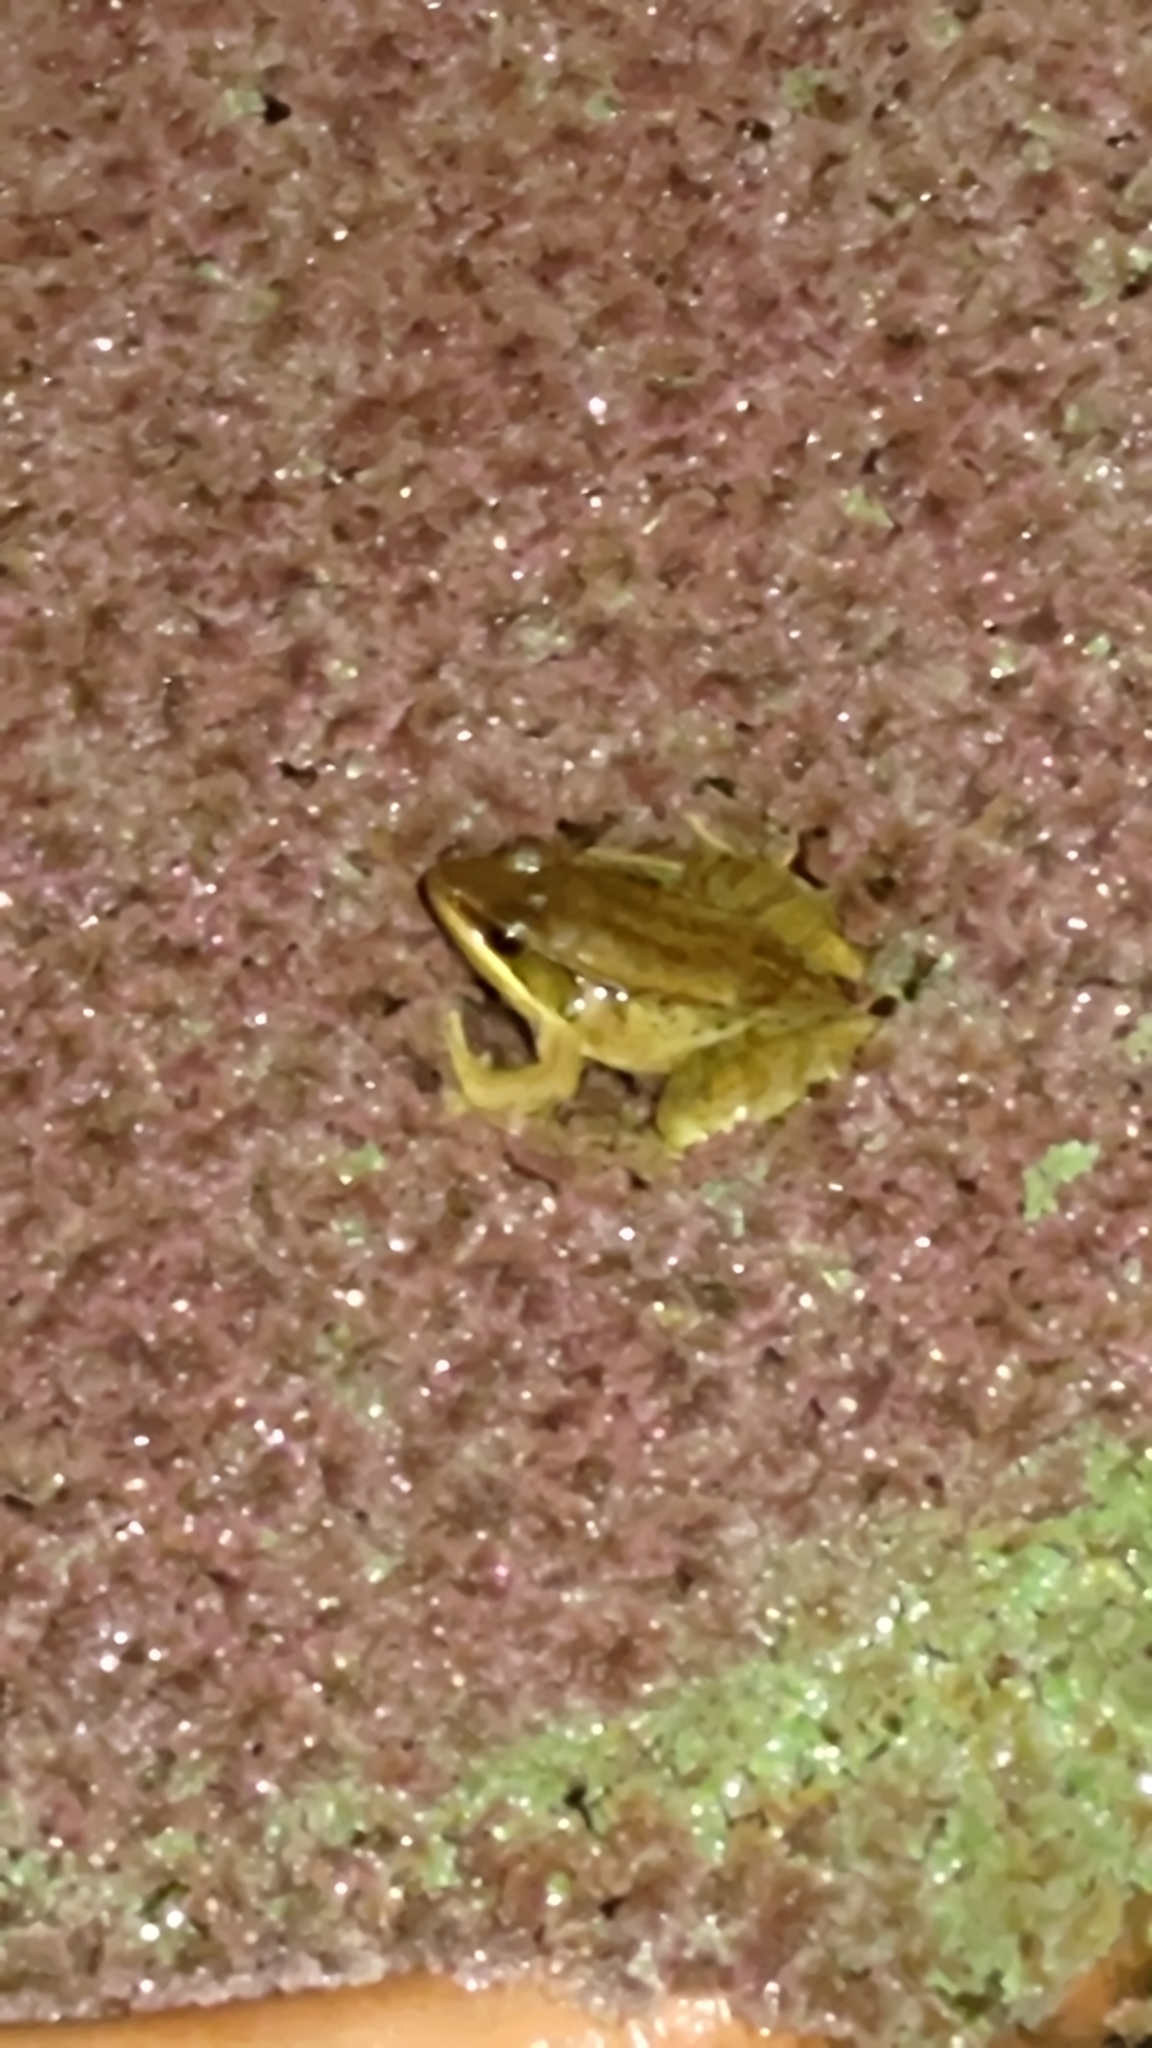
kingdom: Animalia
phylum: Chordata
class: Amphibia
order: Anura
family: Ranidae
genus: Nidirana
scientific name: Nidirana adenopleura
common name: Olive frog
